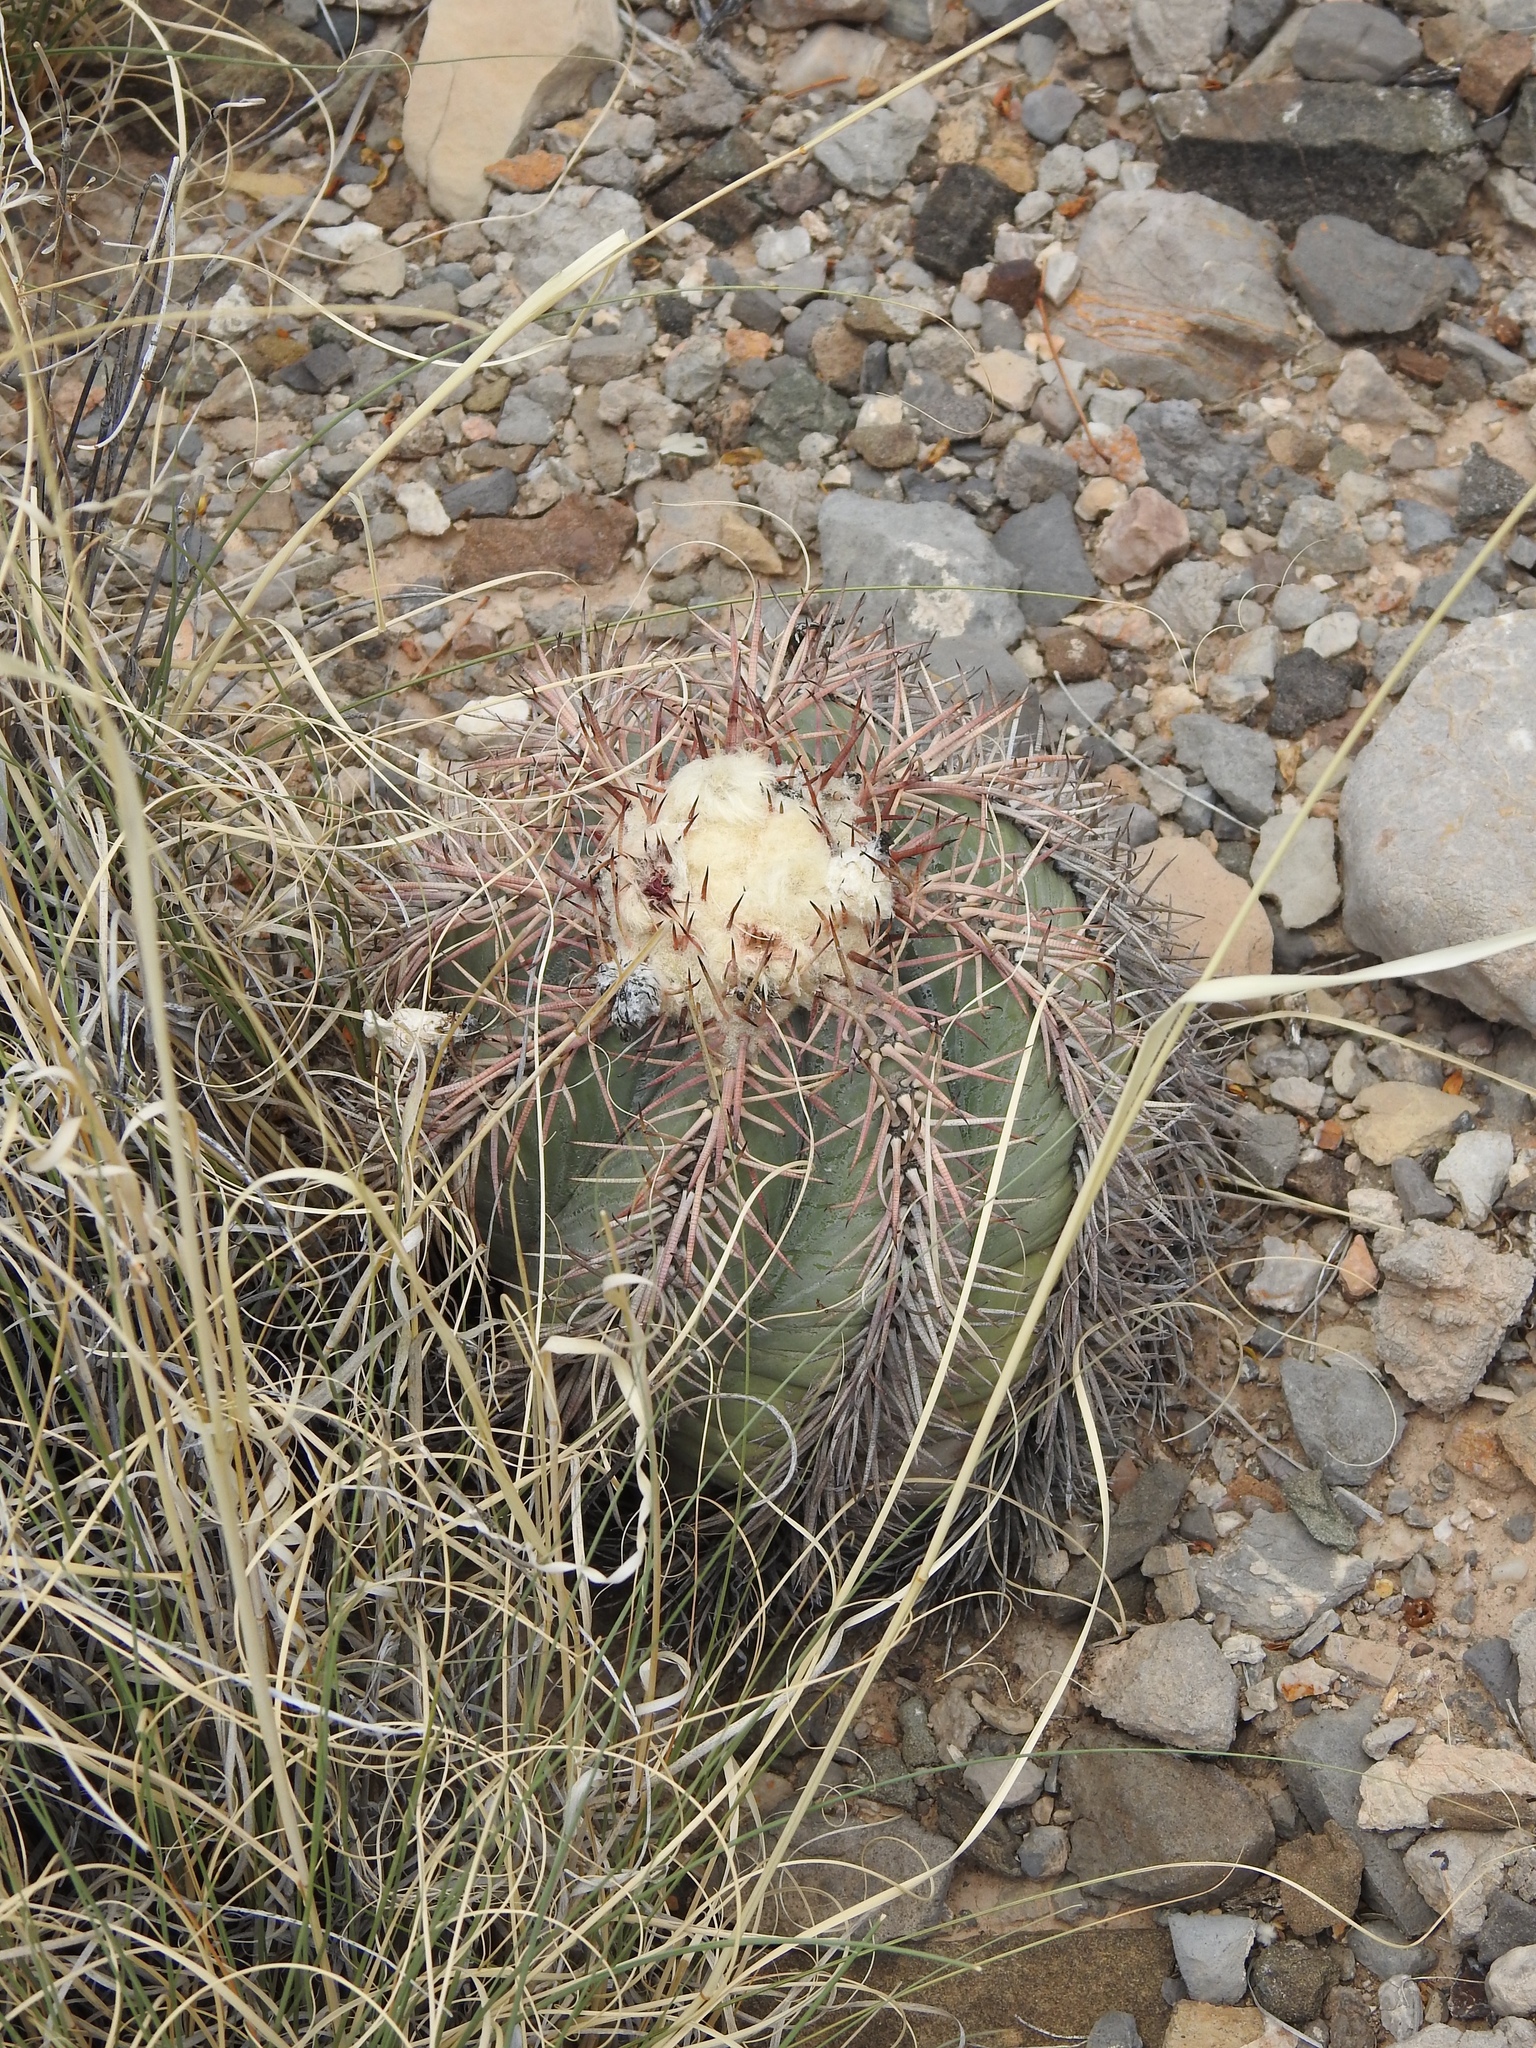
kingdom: Plantae
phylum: Tracheophyta
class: Magnoliopsida
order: Caryophyllales
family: Cactaceae
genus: Echinocactus
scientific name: Echinocactus horizonthalonius
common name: Devilshead
